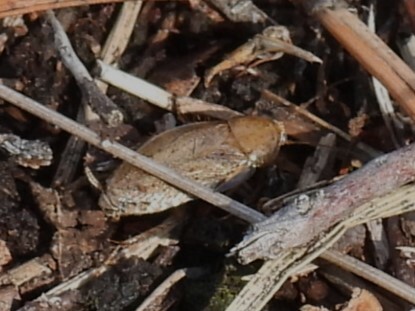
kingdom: Animalia
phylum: Arthropoda
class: Insecta
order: Blattodea
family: Ectobiidae
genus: Ectobius
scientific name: Ectobius pallidus
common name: Tawny cockroach
